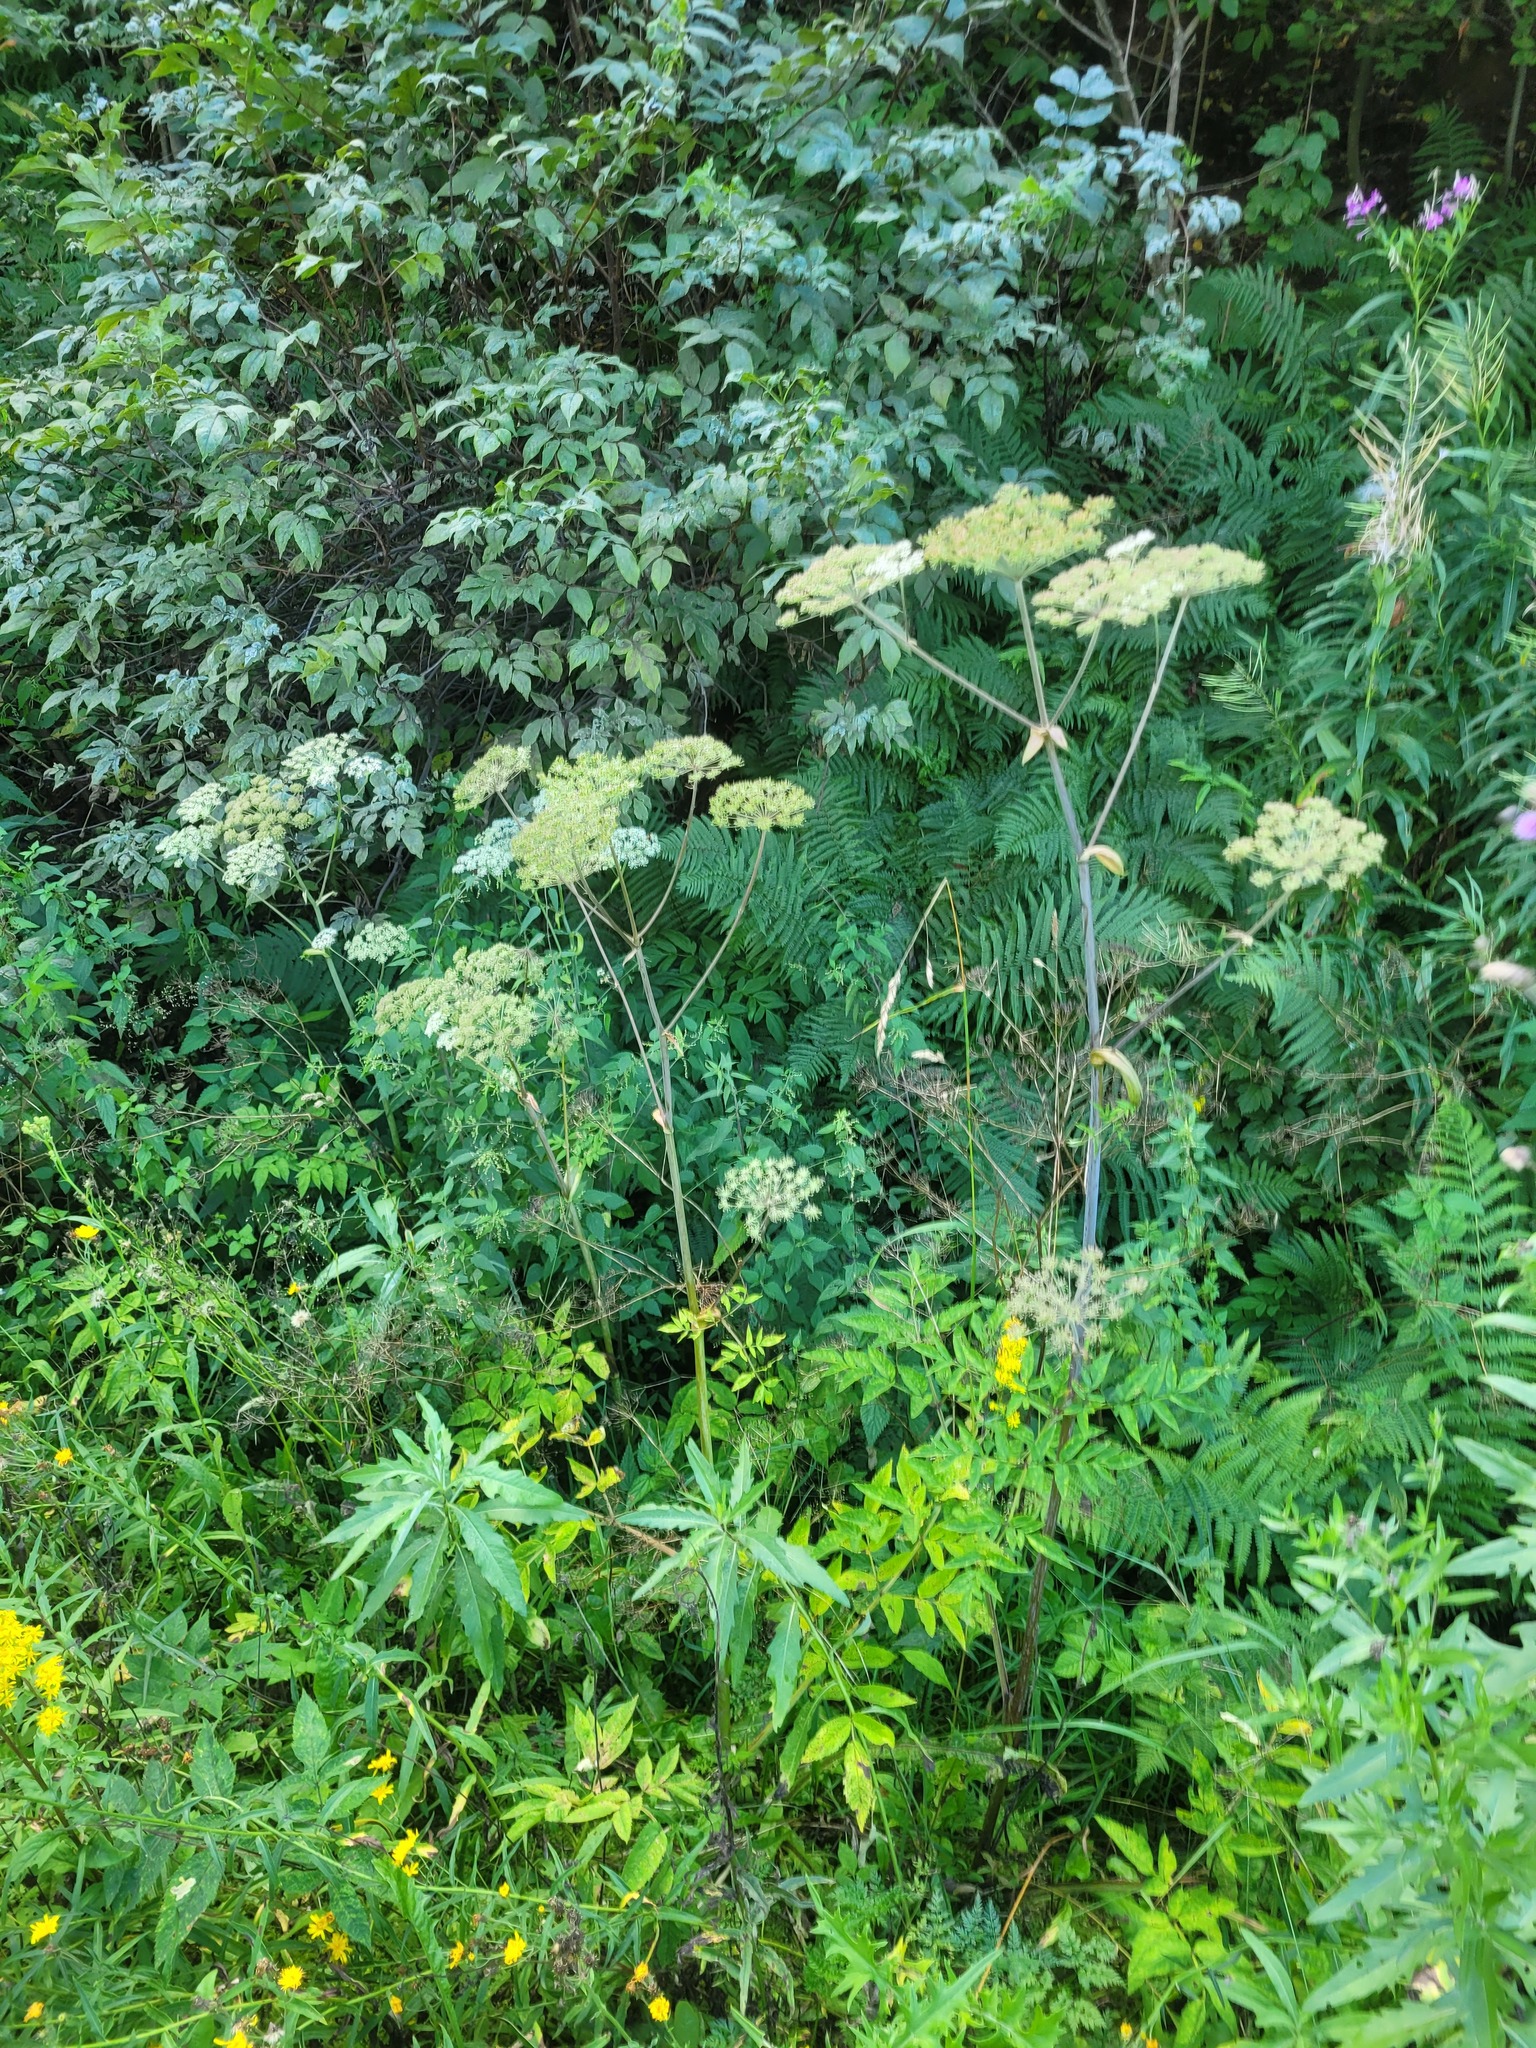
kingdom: Plantae
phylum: Tracheophyta
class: Magnoliopsida
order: Apiales
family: Apiaceae
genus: Angelica
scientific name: Angelica sylvestris
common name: Wild angelica
